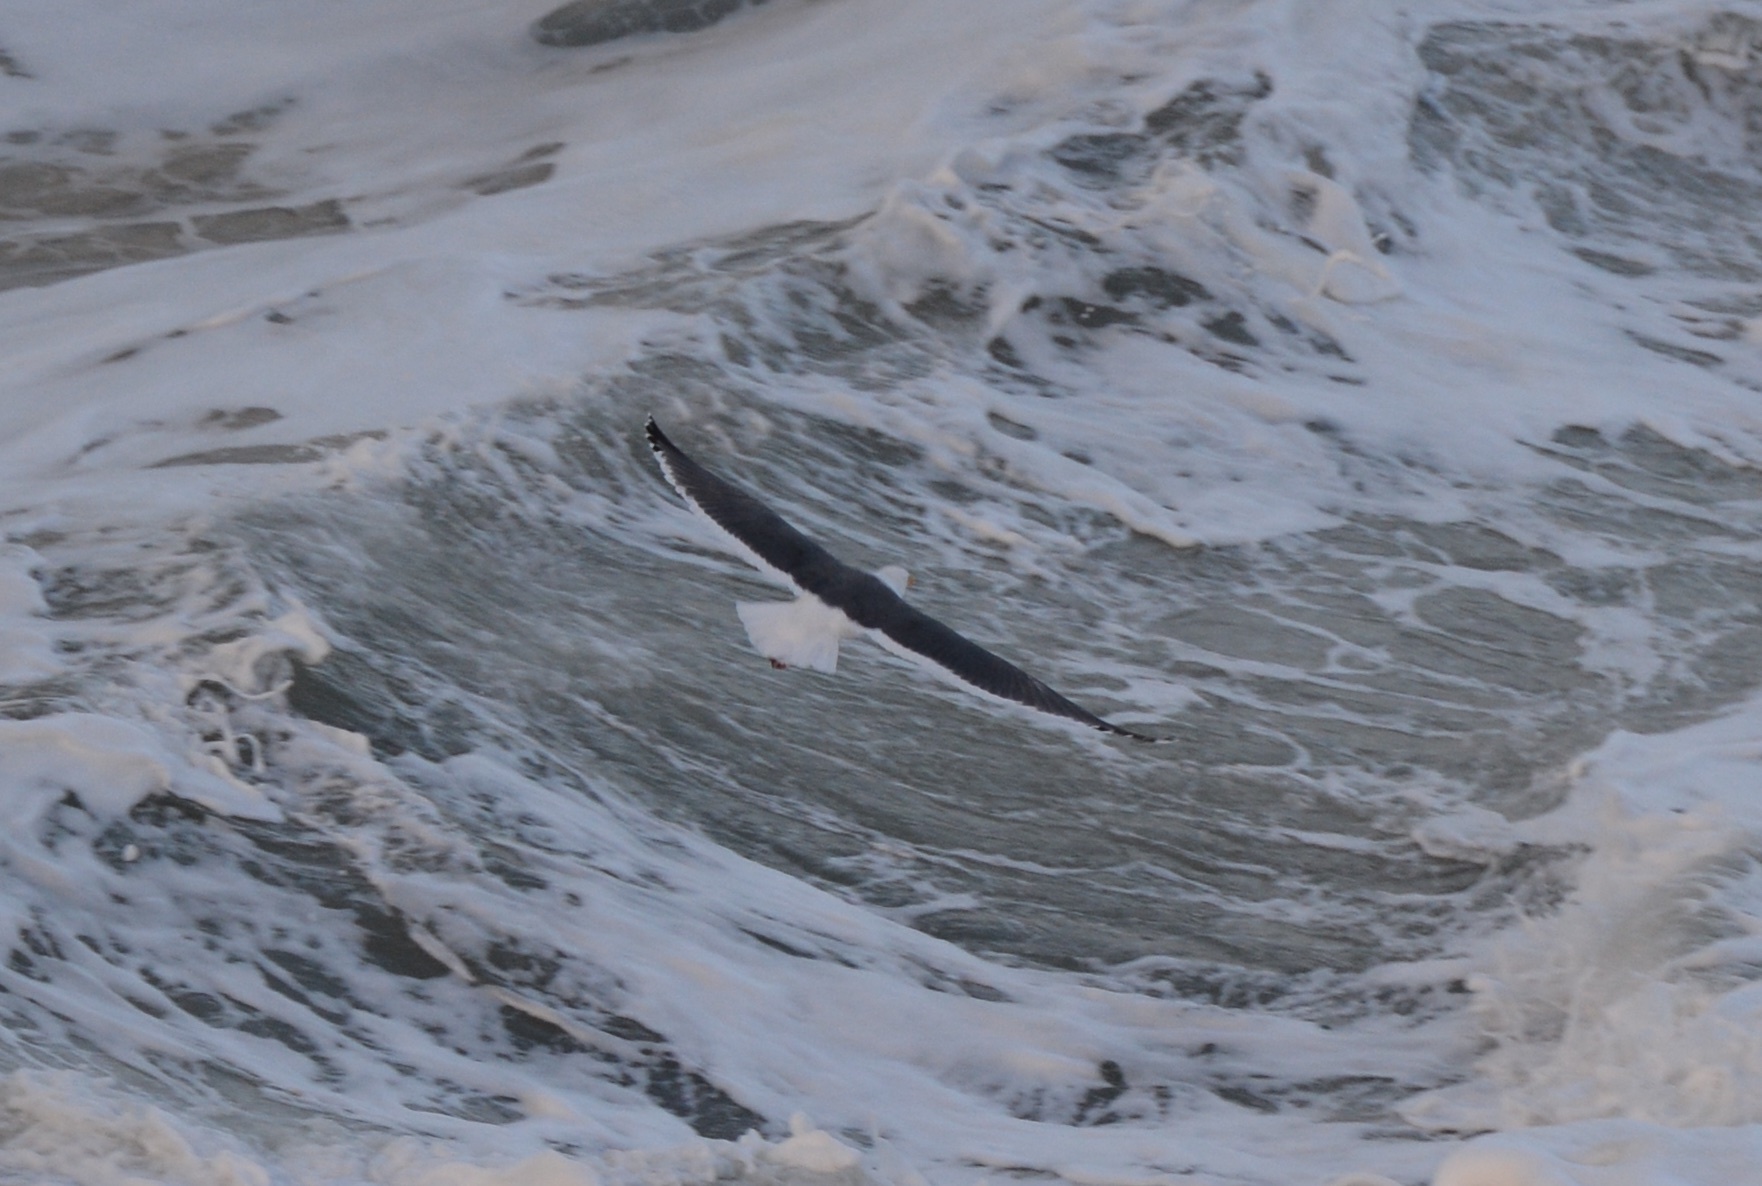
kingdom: Animalia
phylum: Chordata
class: Aves
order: Charadriiformes
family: Laridae
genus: Larus
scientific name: Larus occidentalis
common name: Western gull
